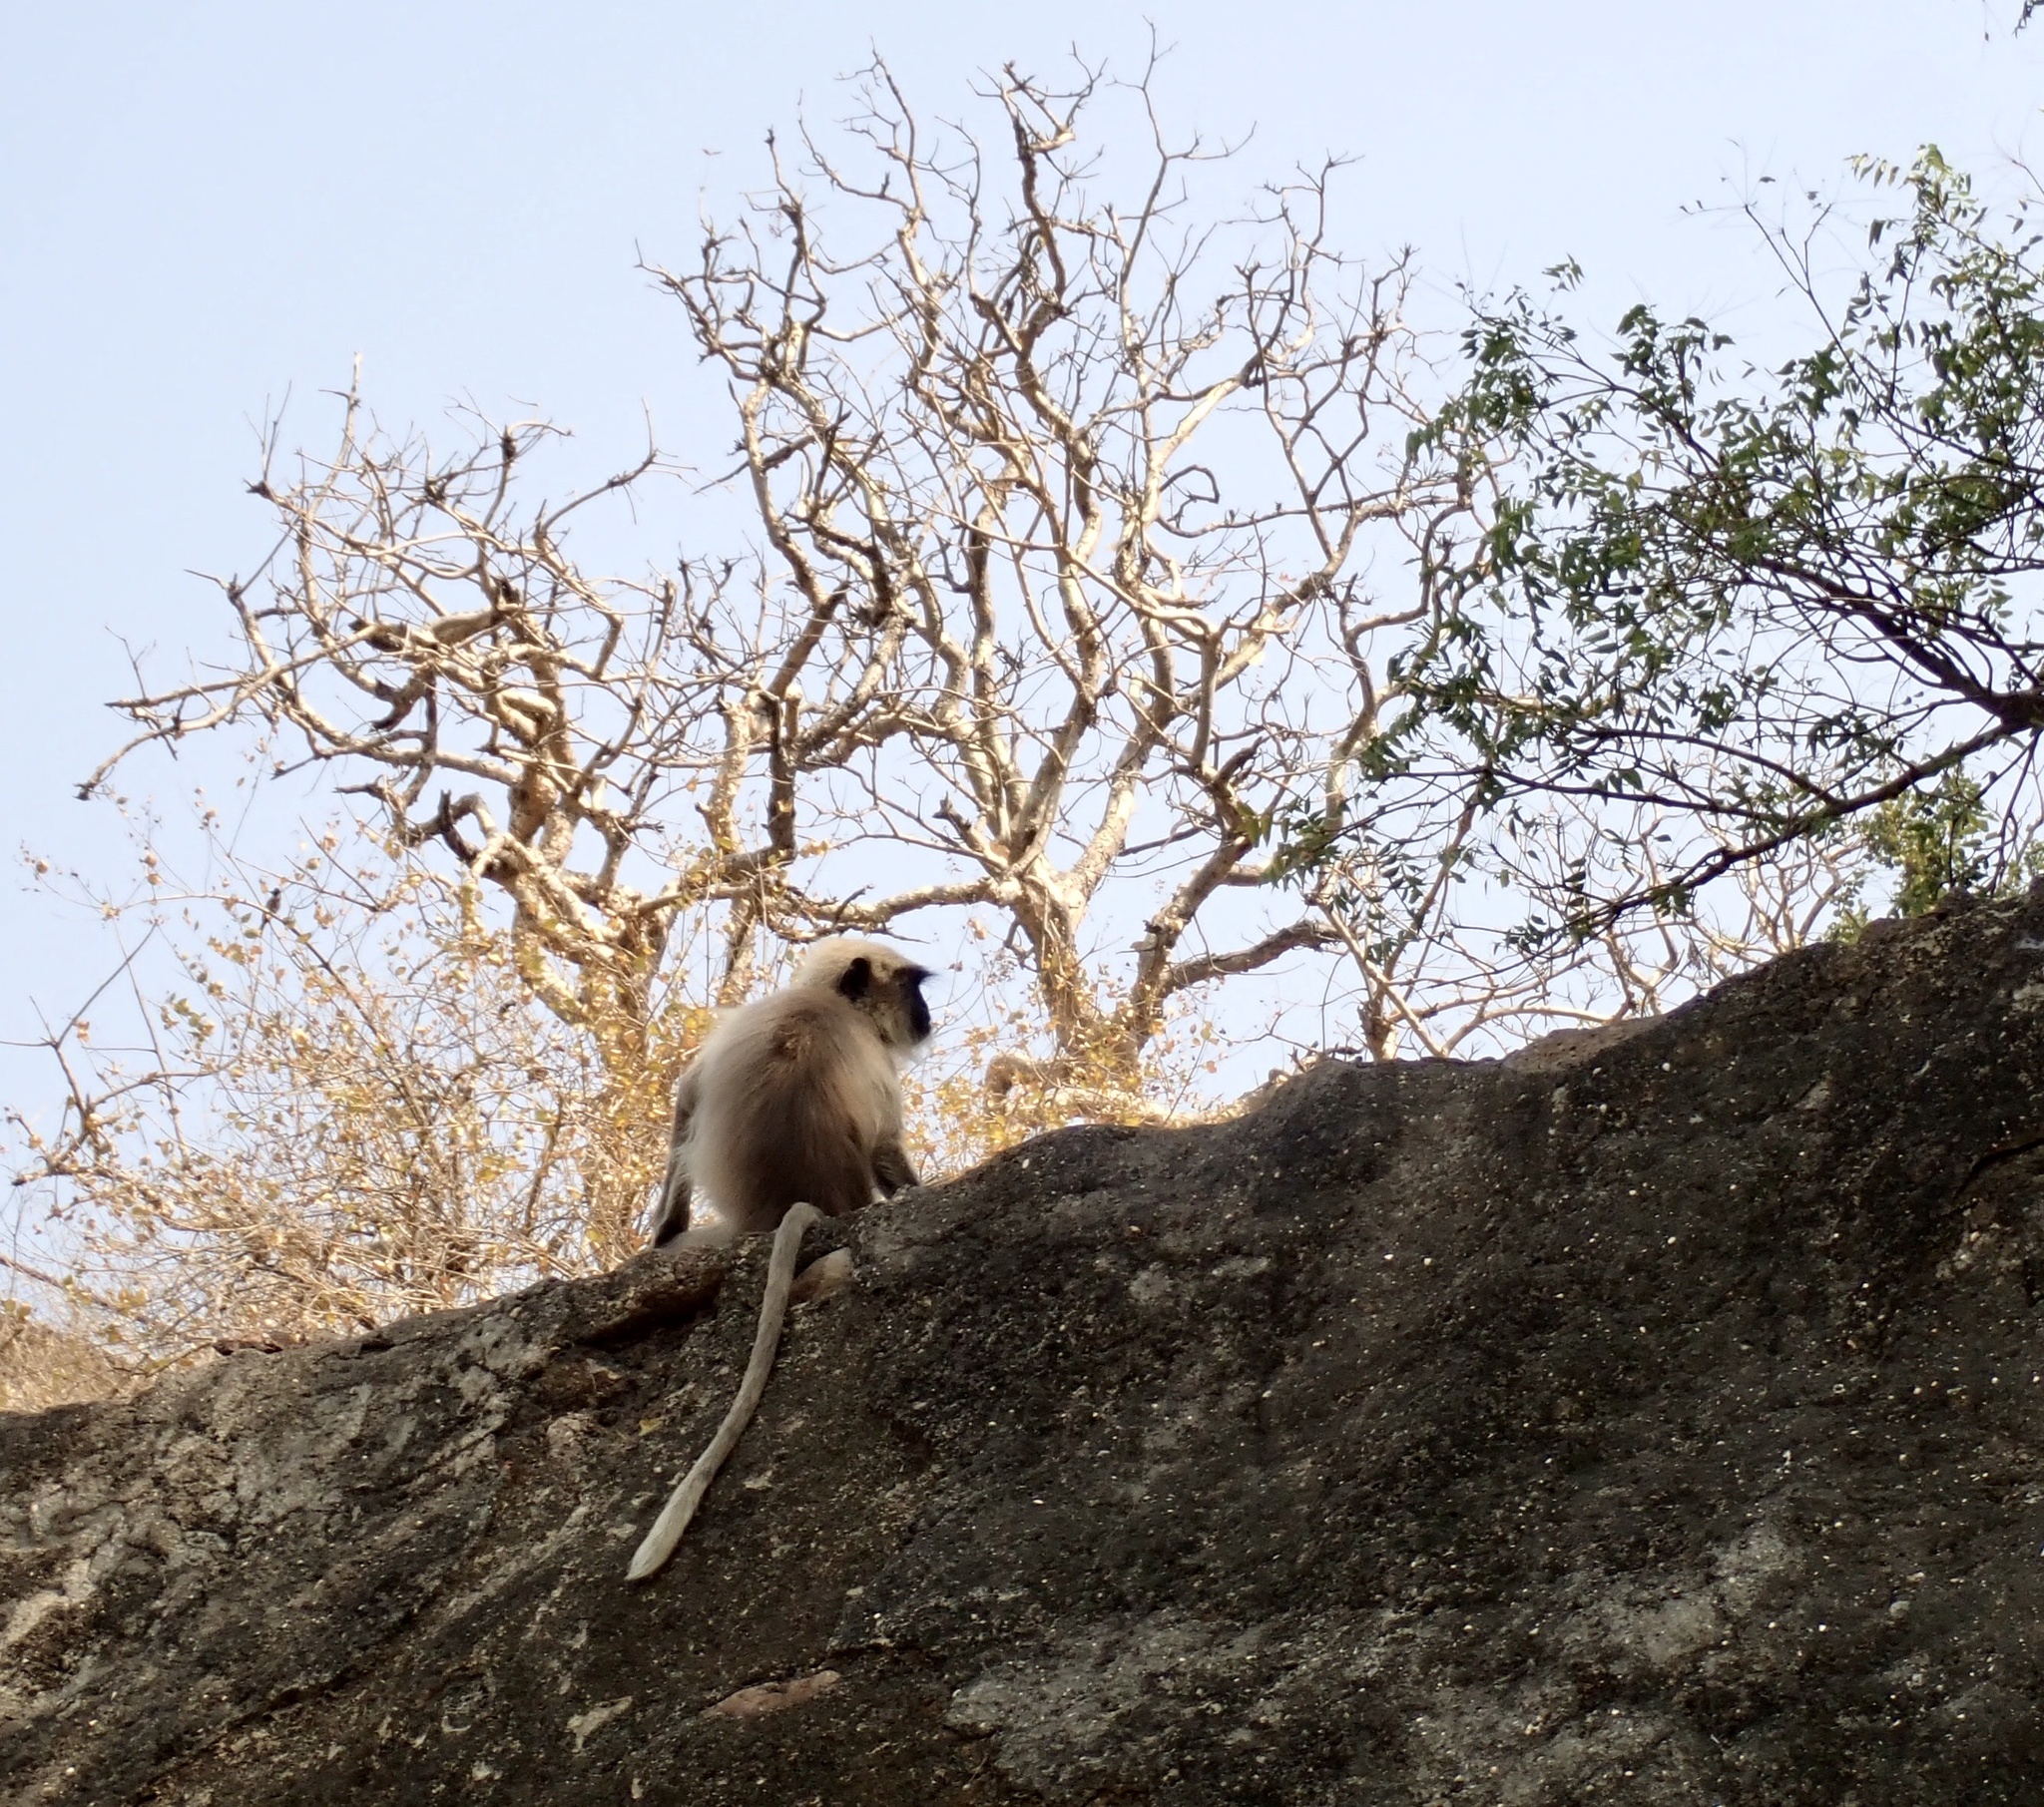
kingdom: Animalia
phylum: Chordata
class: Mammalia
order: Primates
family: Cercopithecidae
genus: Semnopithecus
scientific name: Semnopithecus hypoleucos
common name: Black-footed gray langur
